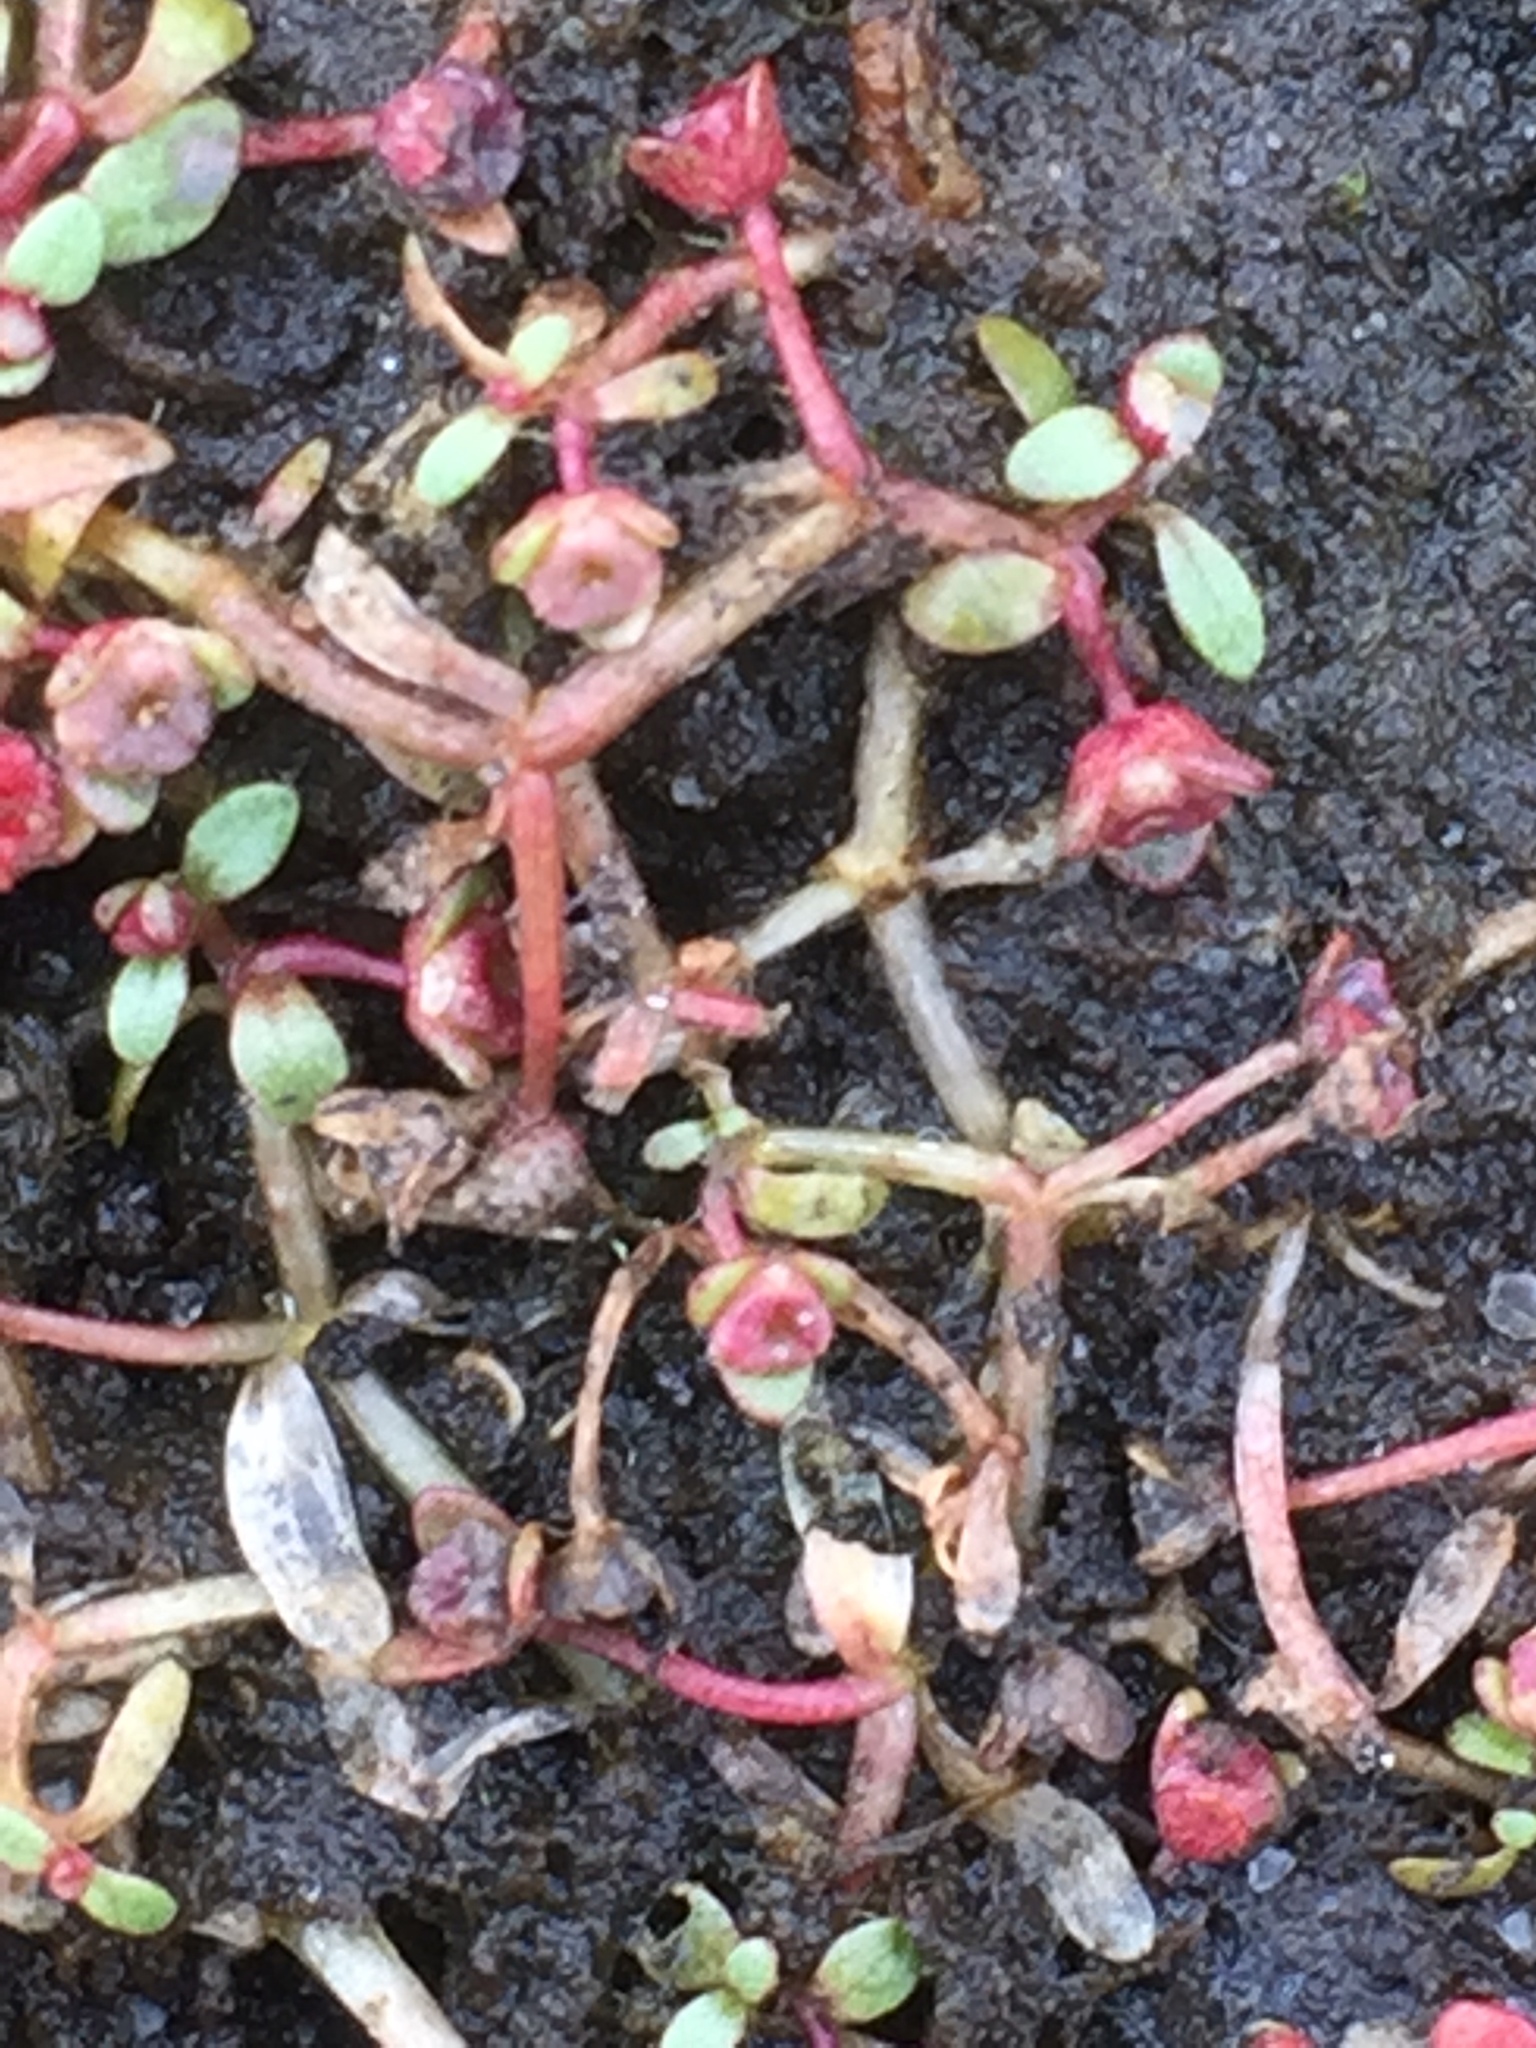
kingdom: Plantae
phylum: Tracheophyta
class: Magnoliopsida
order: Malpighiales
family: Elatinaceae
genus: Elatine
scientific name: Elatine hexandra
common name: Six-stamened waterwort
